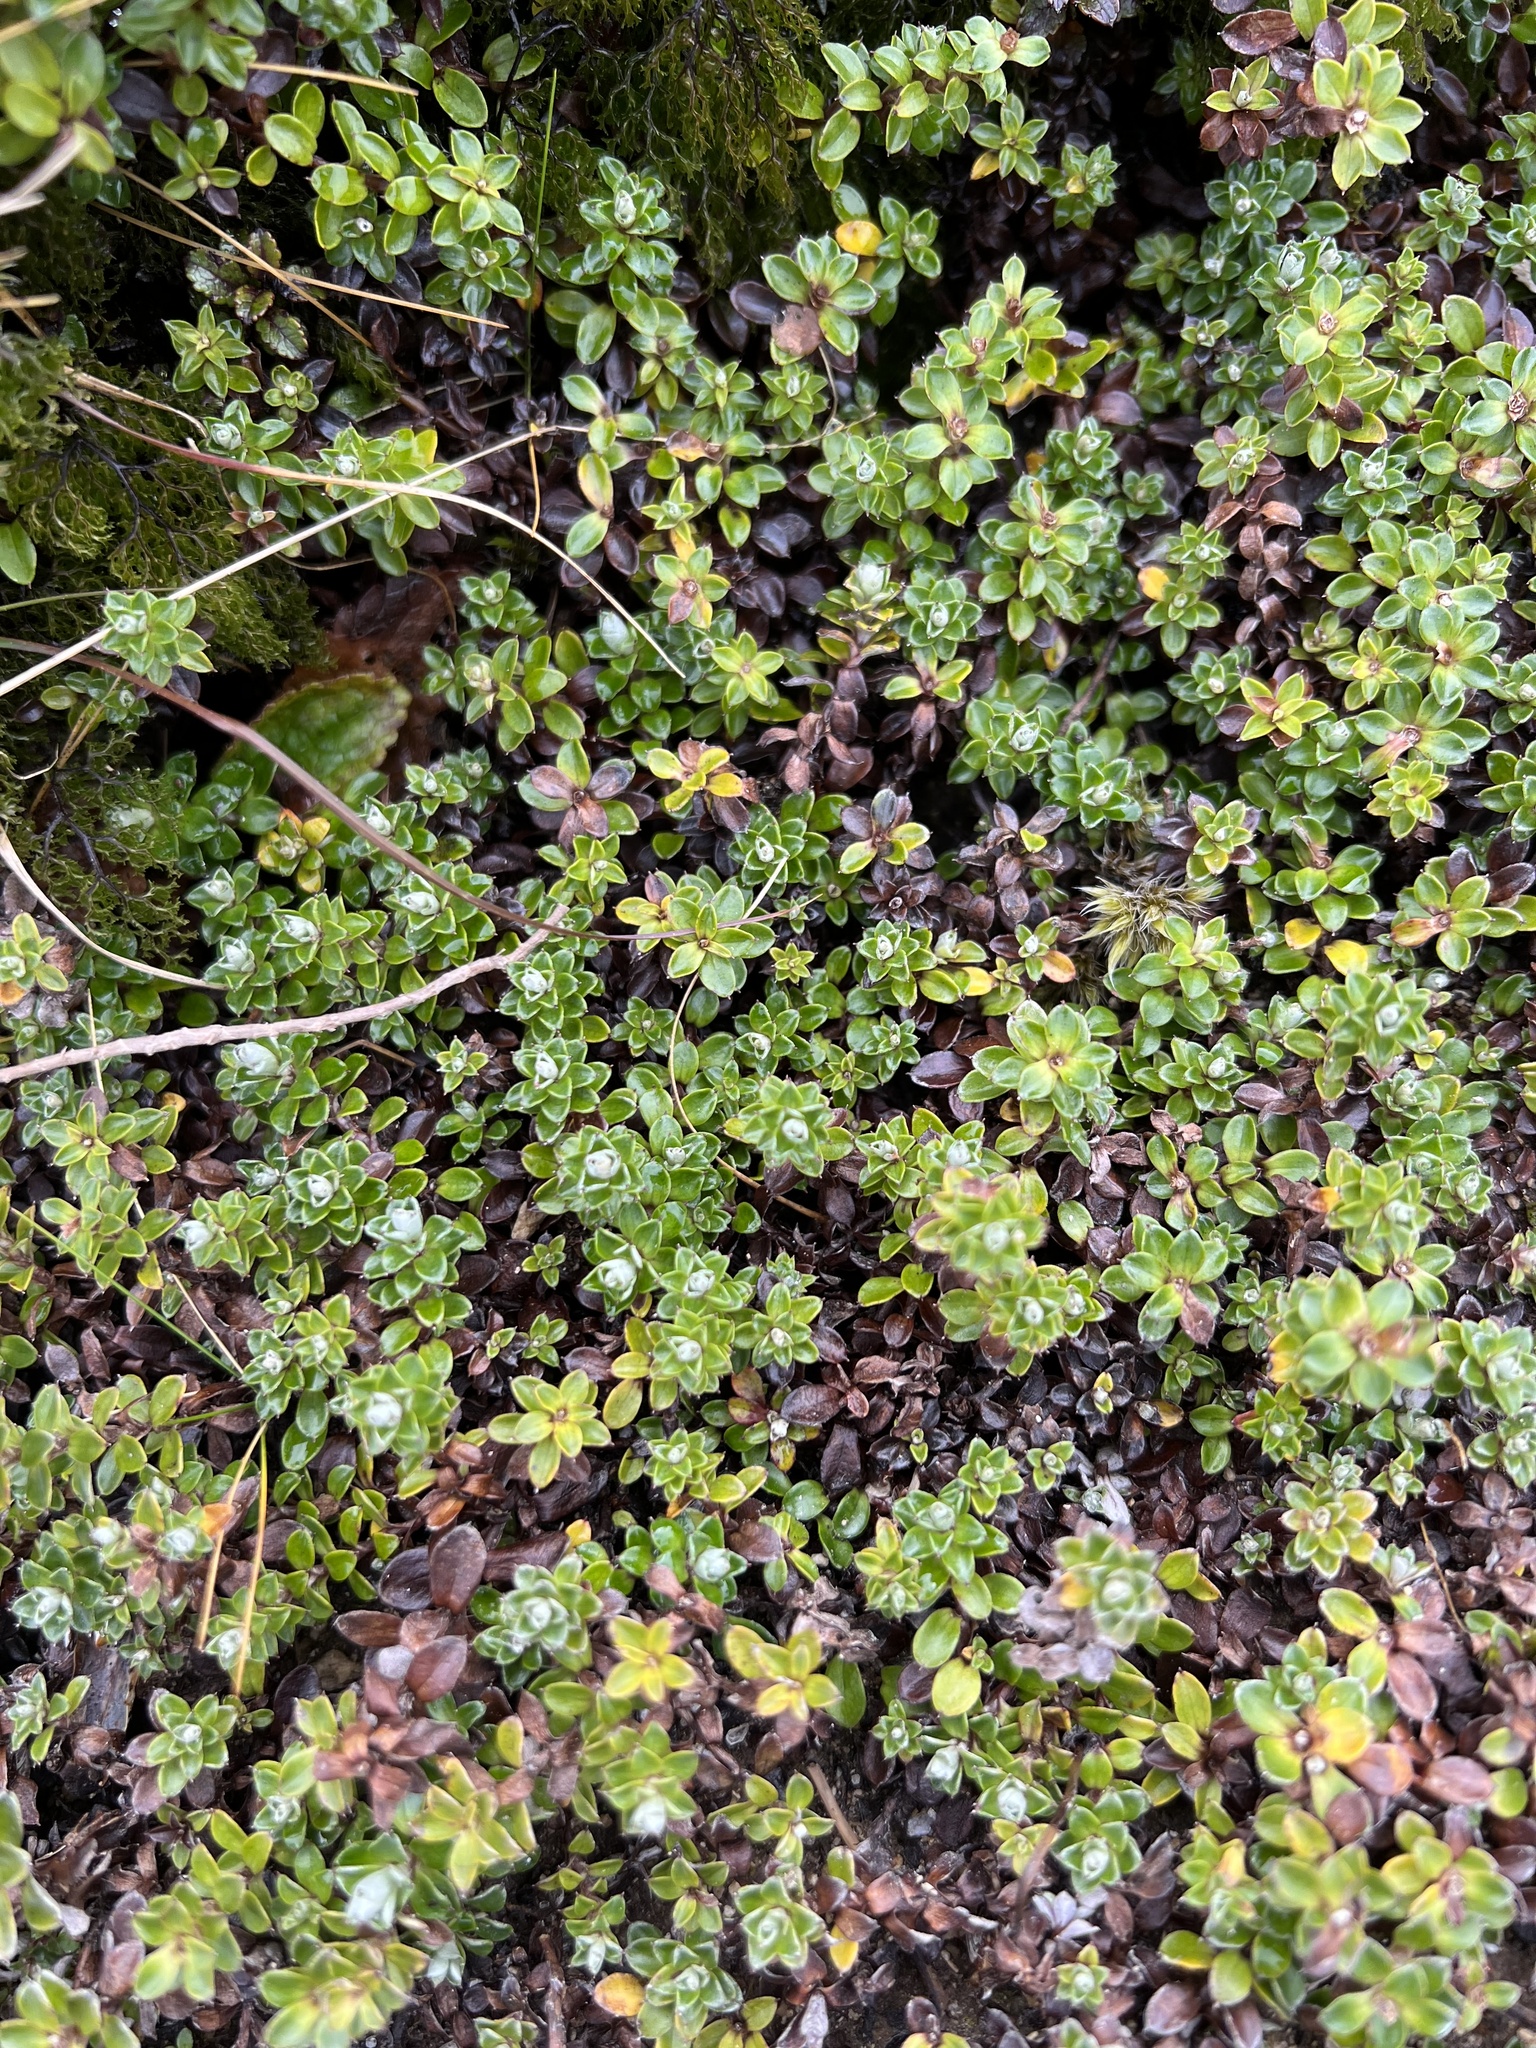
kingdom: Plantae
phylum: Tracheophyta
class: Magnoliopsida
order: Asterales
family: Asteraceae
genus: Anaphalioides
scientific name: Anaphalioides alpina
